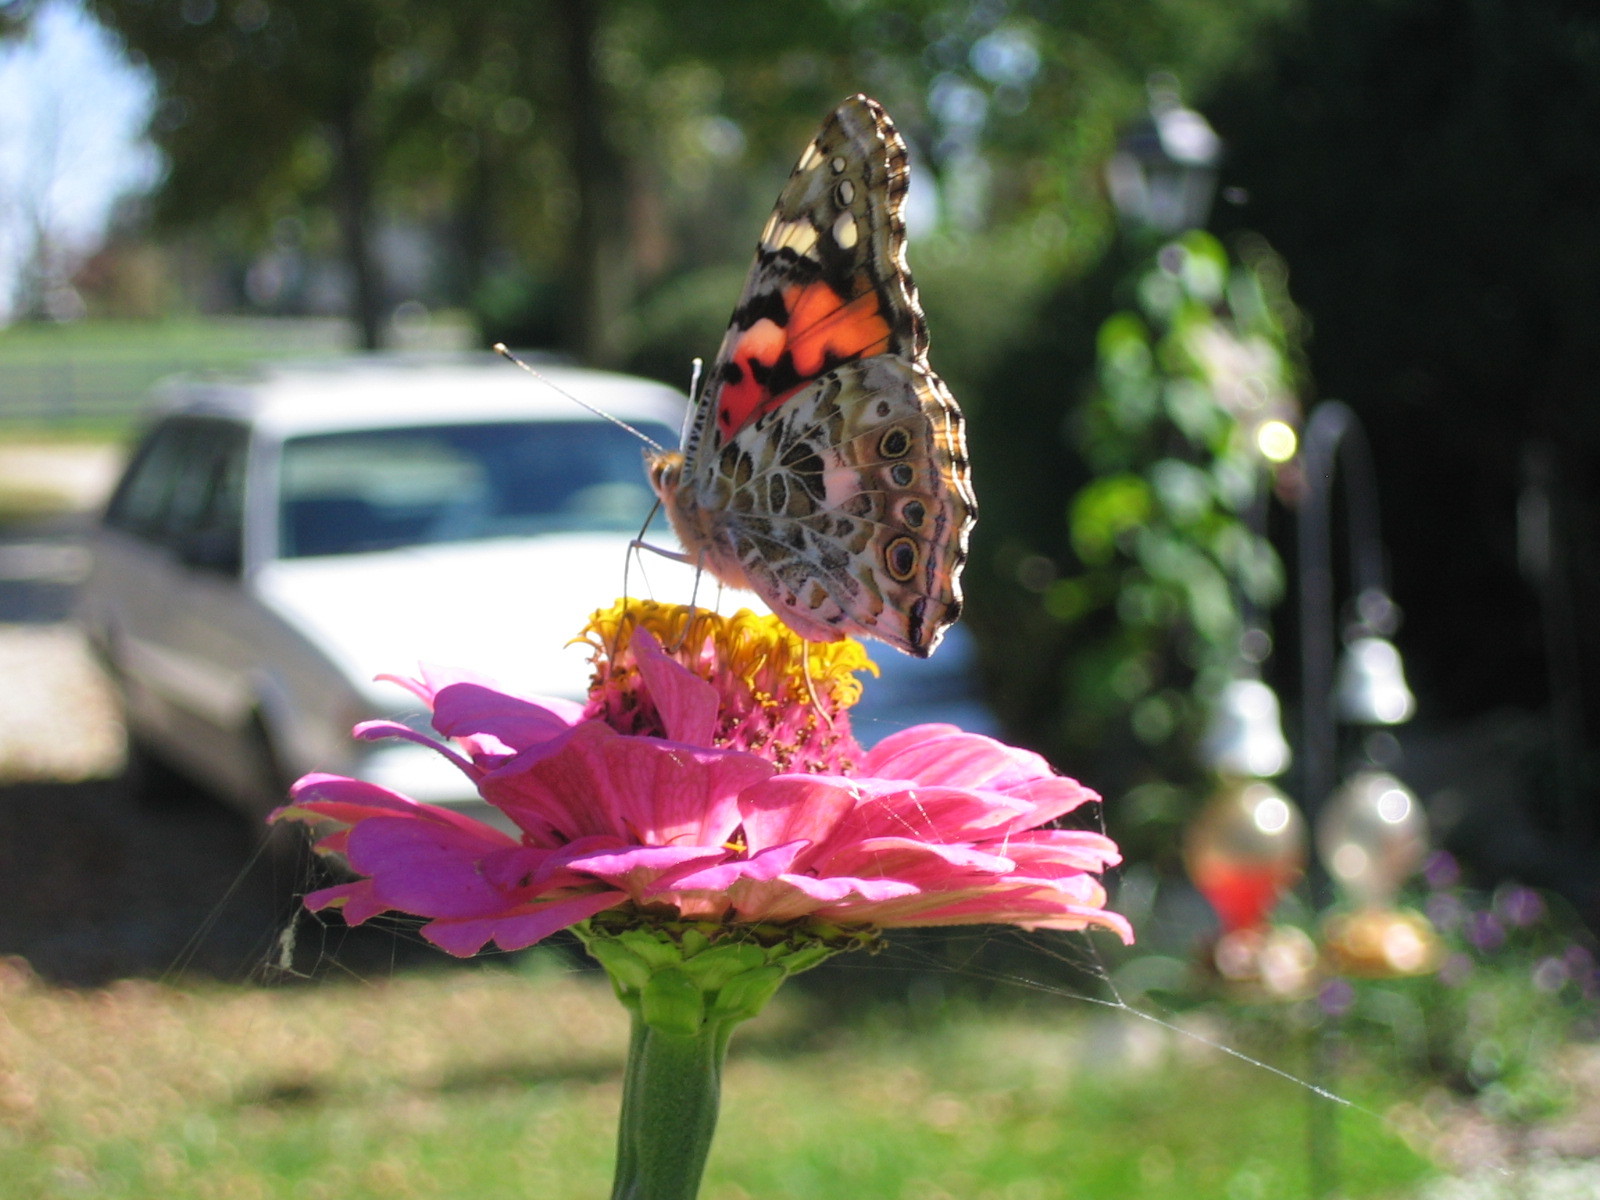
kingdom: Animalia
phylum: Arthropoda
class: Insecta
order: Lepidoptera
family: Nymphalidae
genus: Vanessa
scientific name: Vanessa cardui
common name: Painted lady
